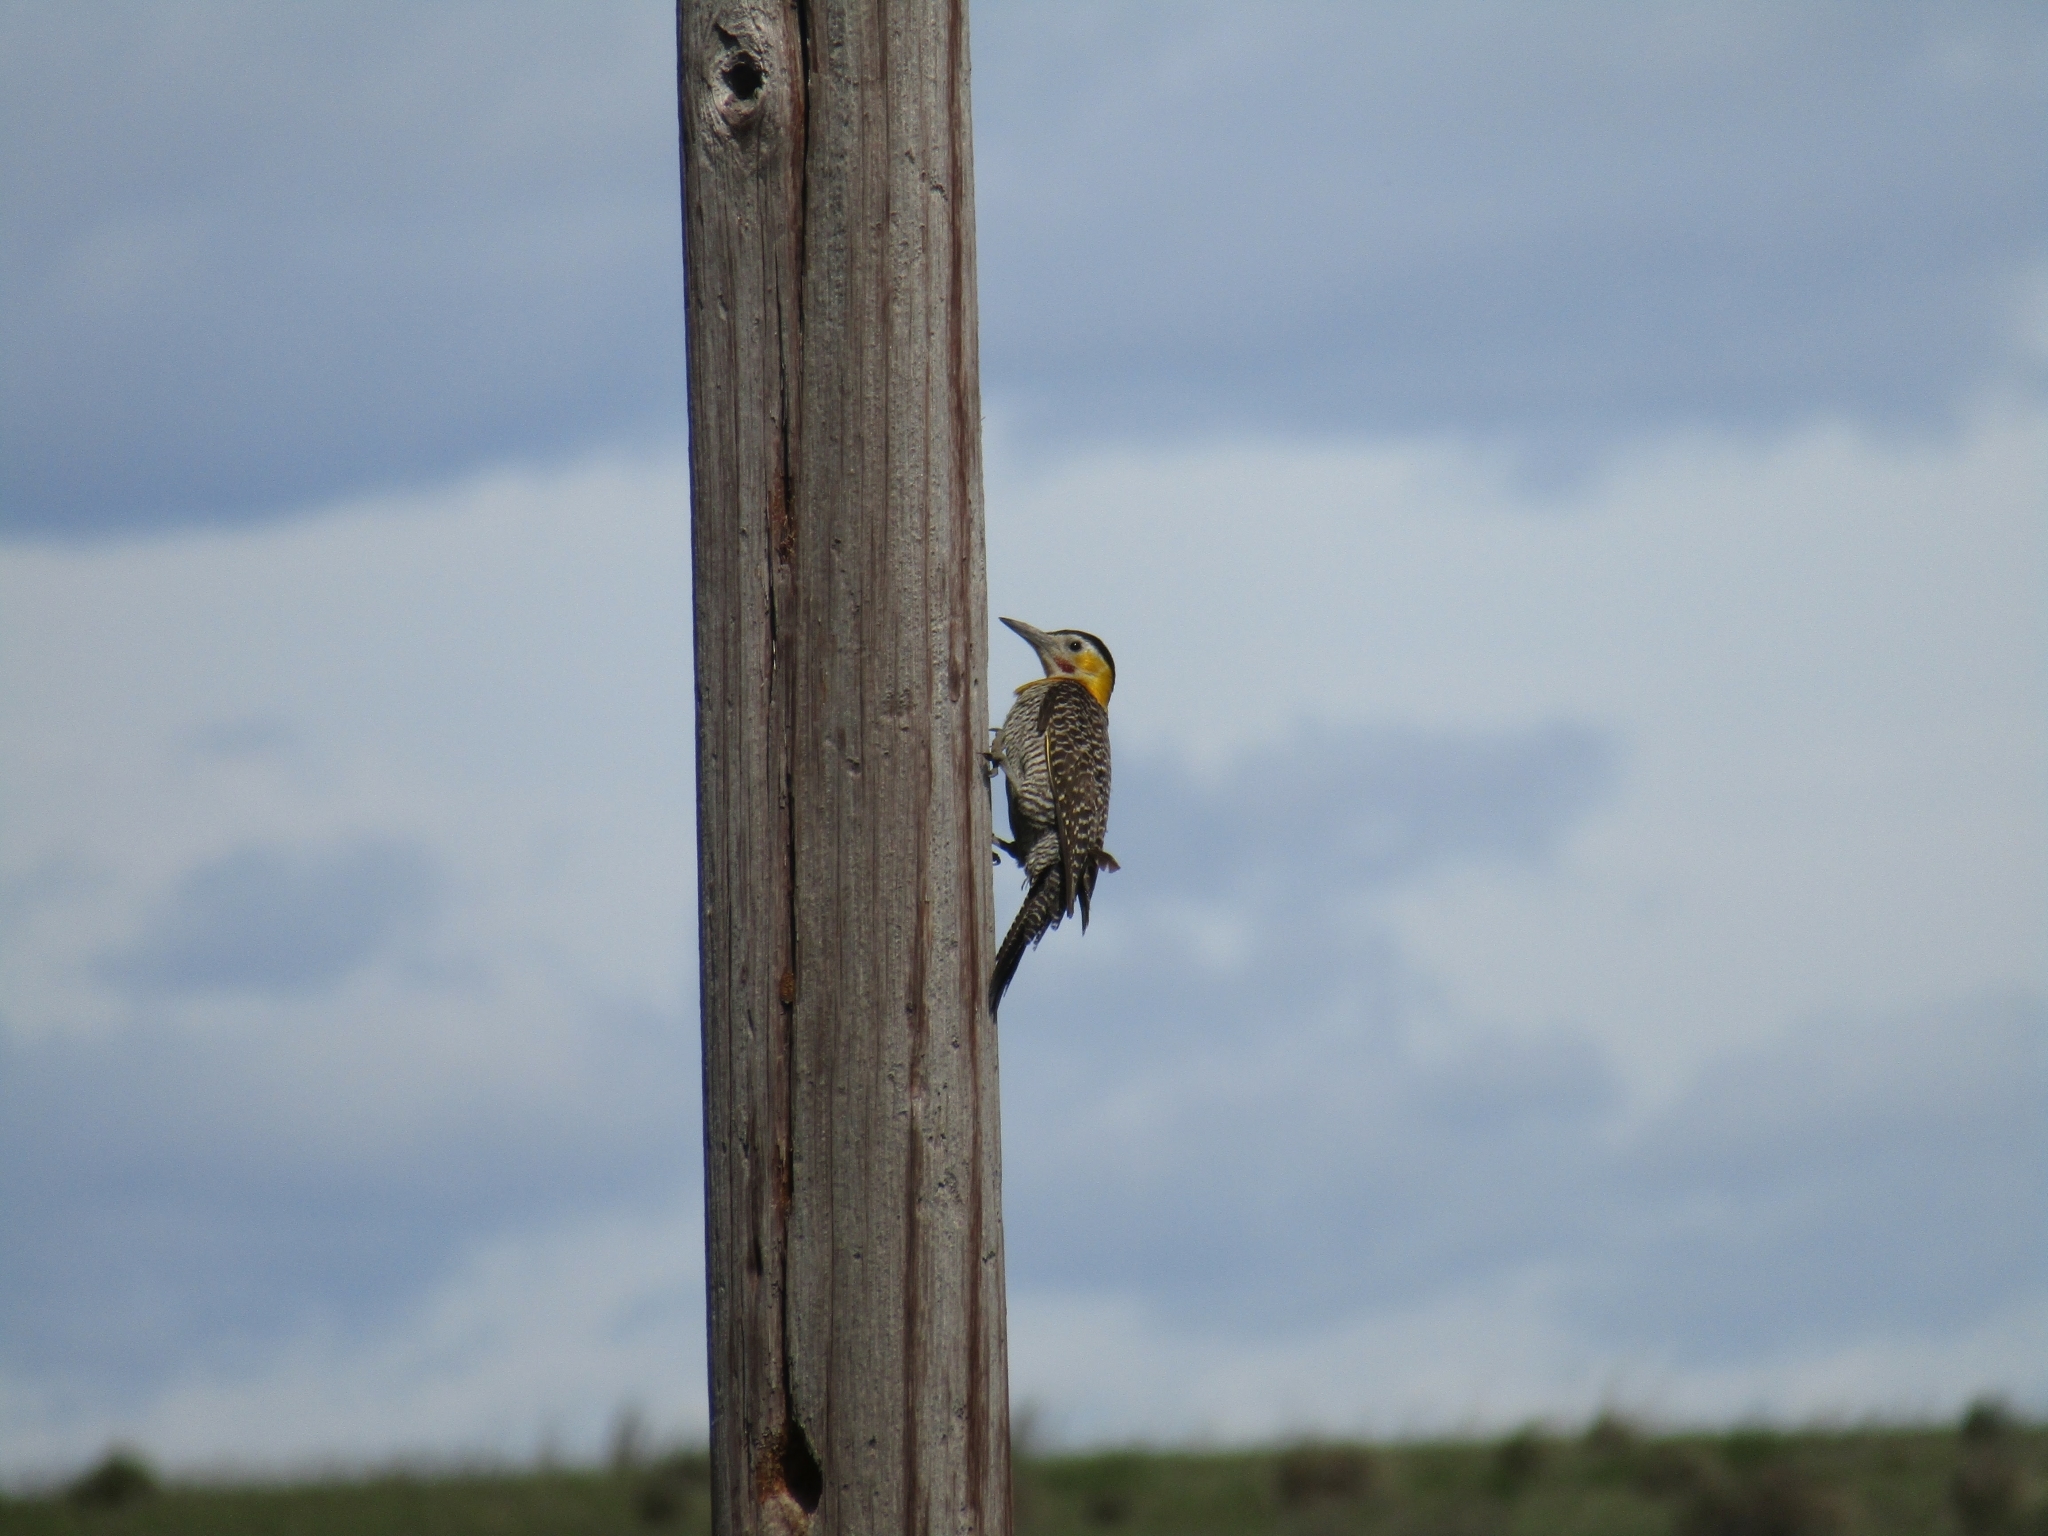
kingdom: Animalia
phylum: Chordata
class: Aves
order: Piciformes
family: Picidae
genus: Colaptes
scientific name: Colaptes campestris
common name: Campo flicker
